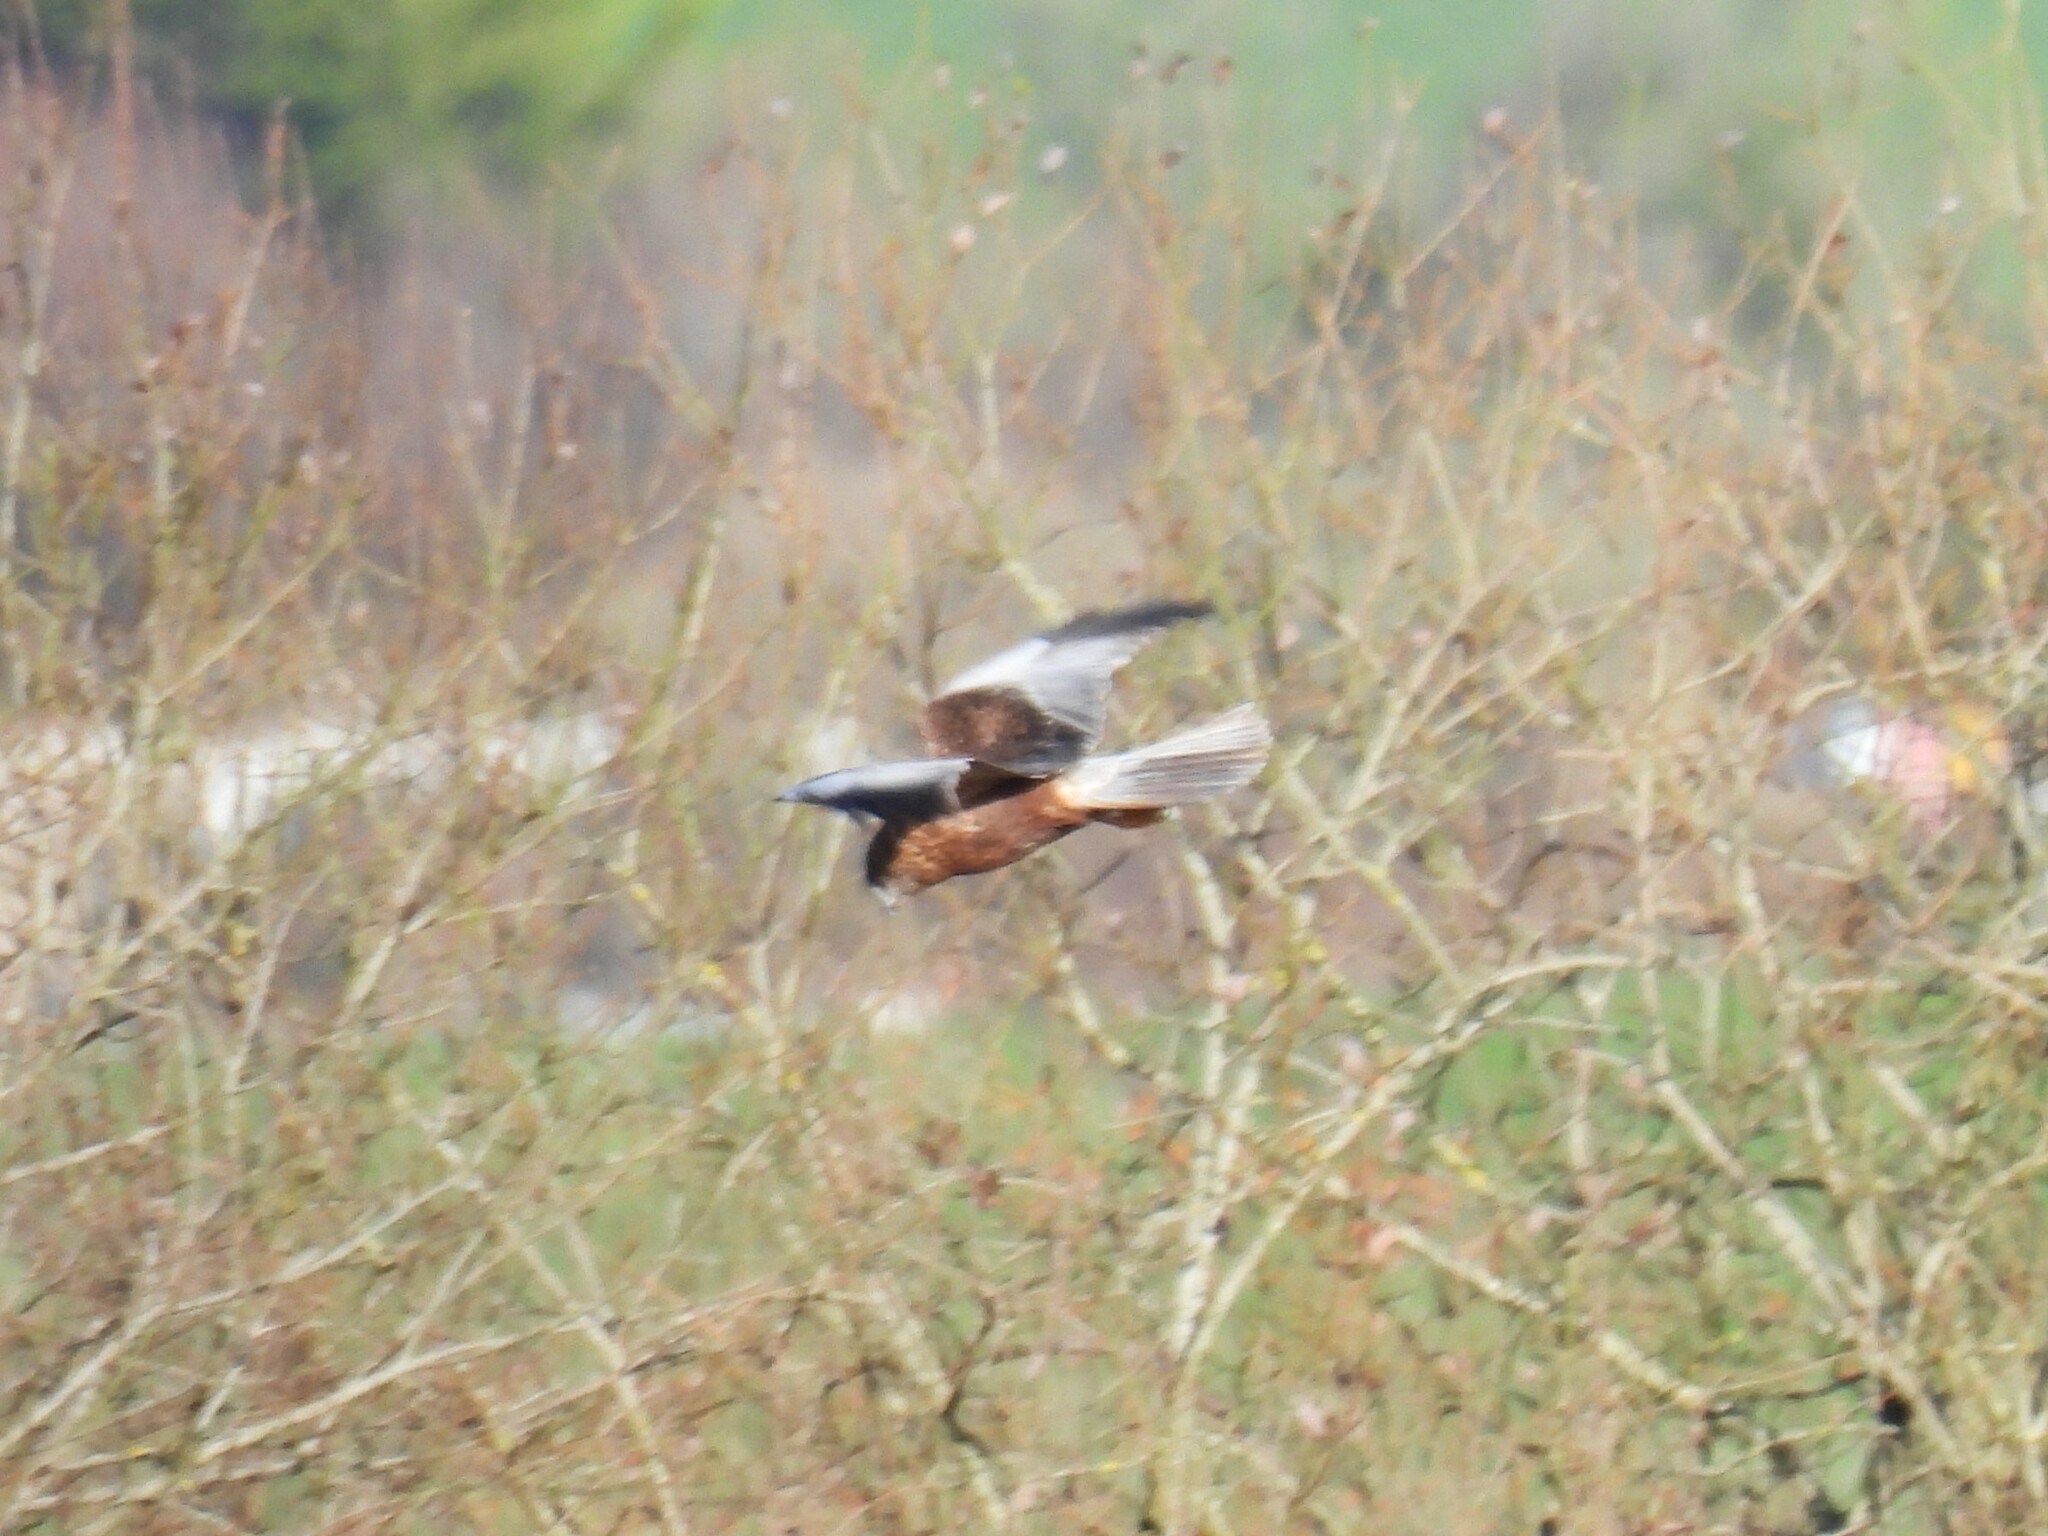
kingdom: Animalia
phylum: Chordata
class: Aves
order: Accipitriformes
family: Accipitridae
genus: Circus
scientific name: Circus aeruginosus
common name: Western marsh harrier
